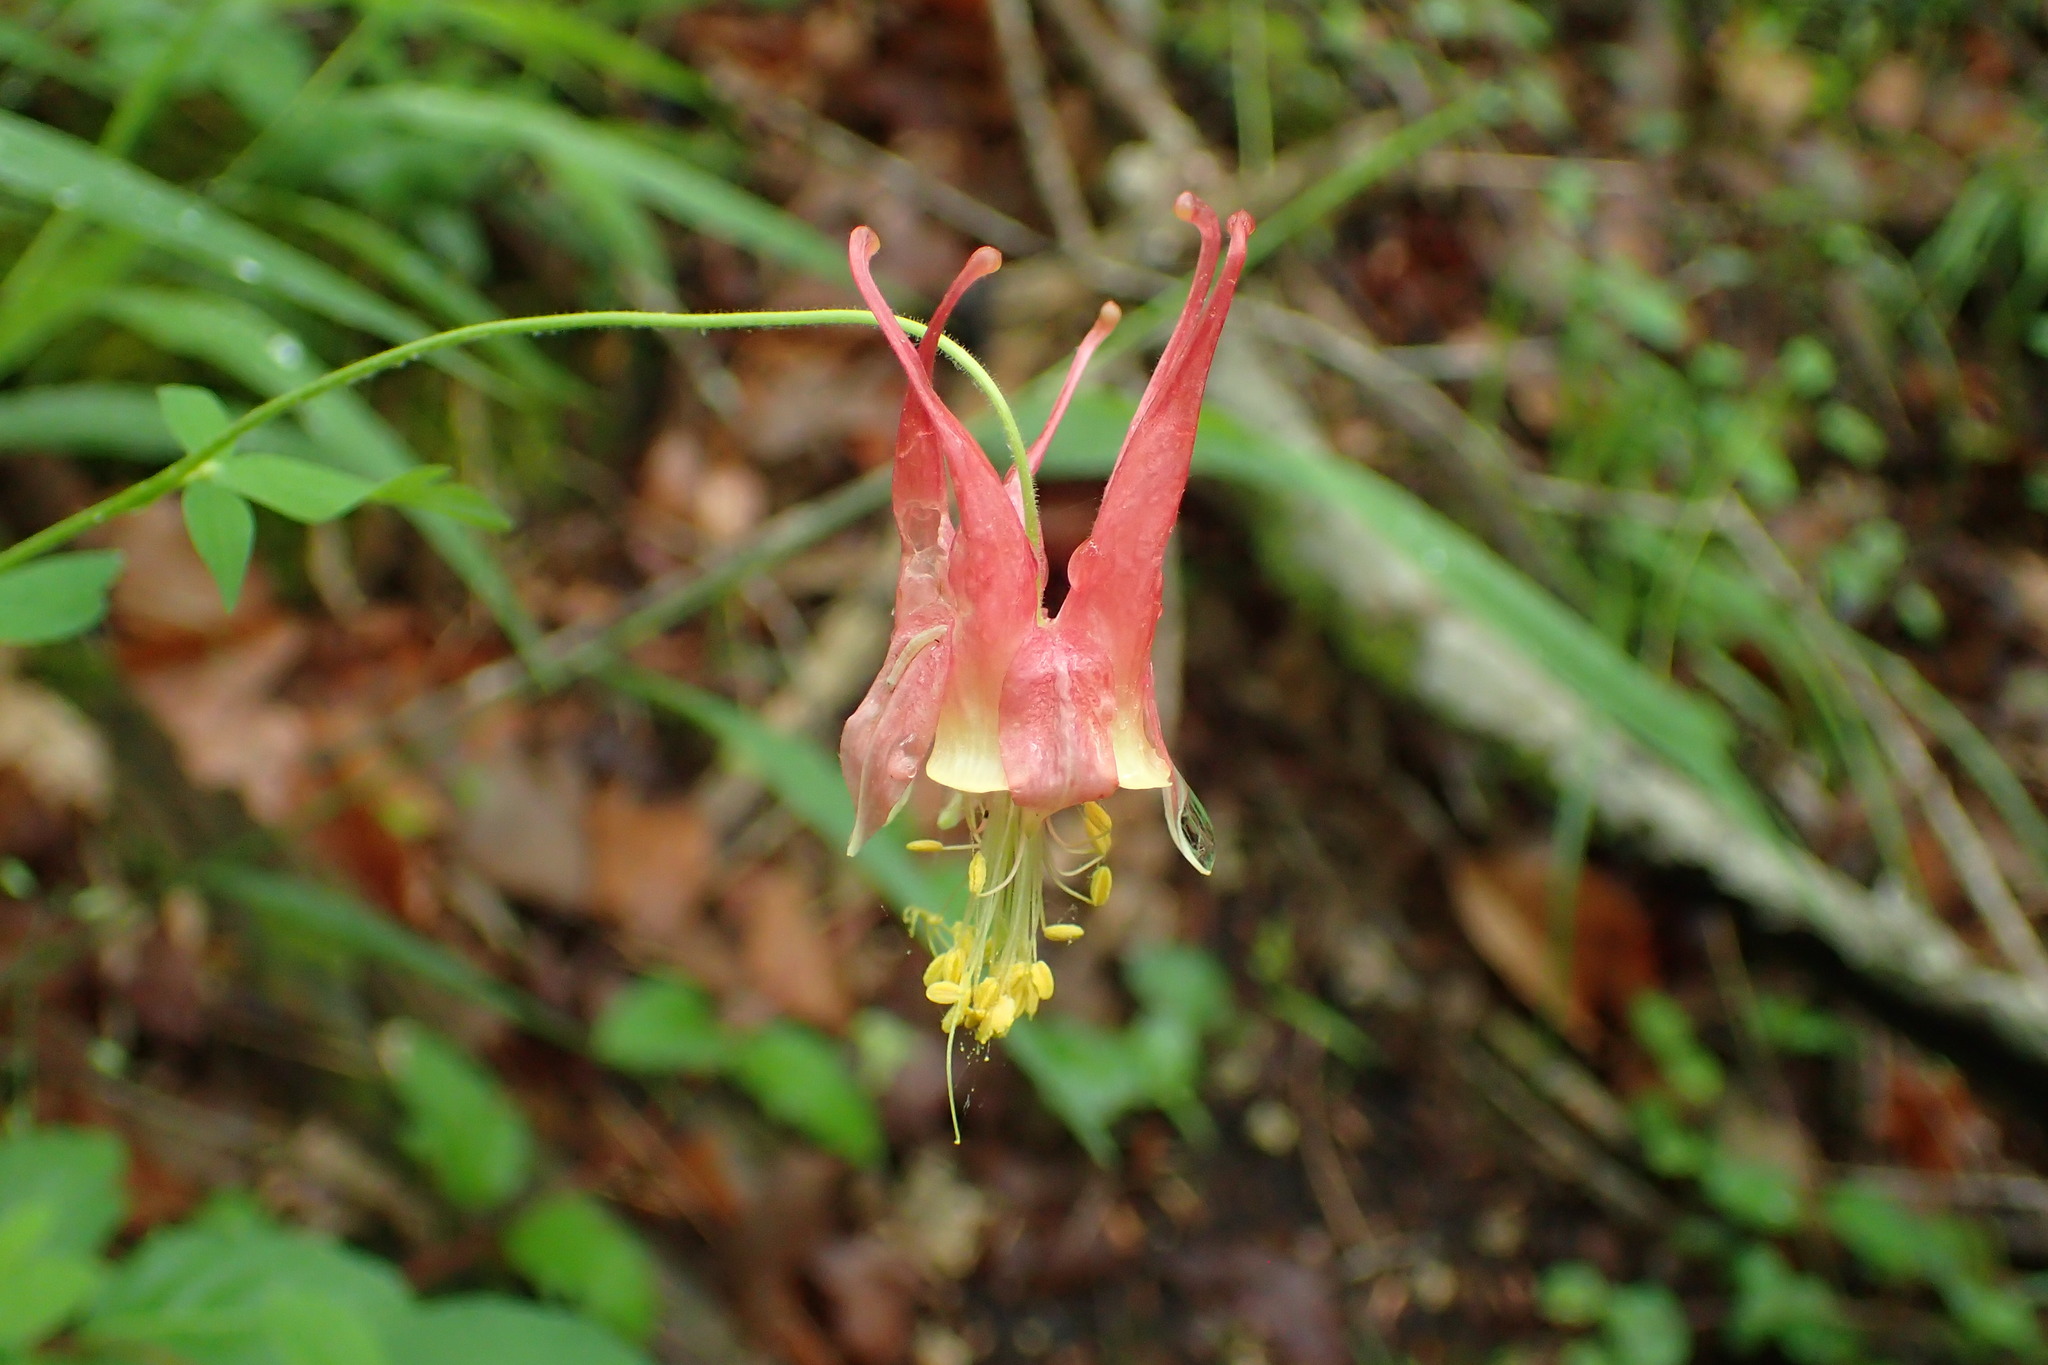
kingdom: Plantae
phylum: Tracheophyta
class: Magnoliopsida
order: Ranunculales
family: Ranunculaceae
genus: Aquilegia
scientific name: Aquilegia canadensis
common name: American columbine
